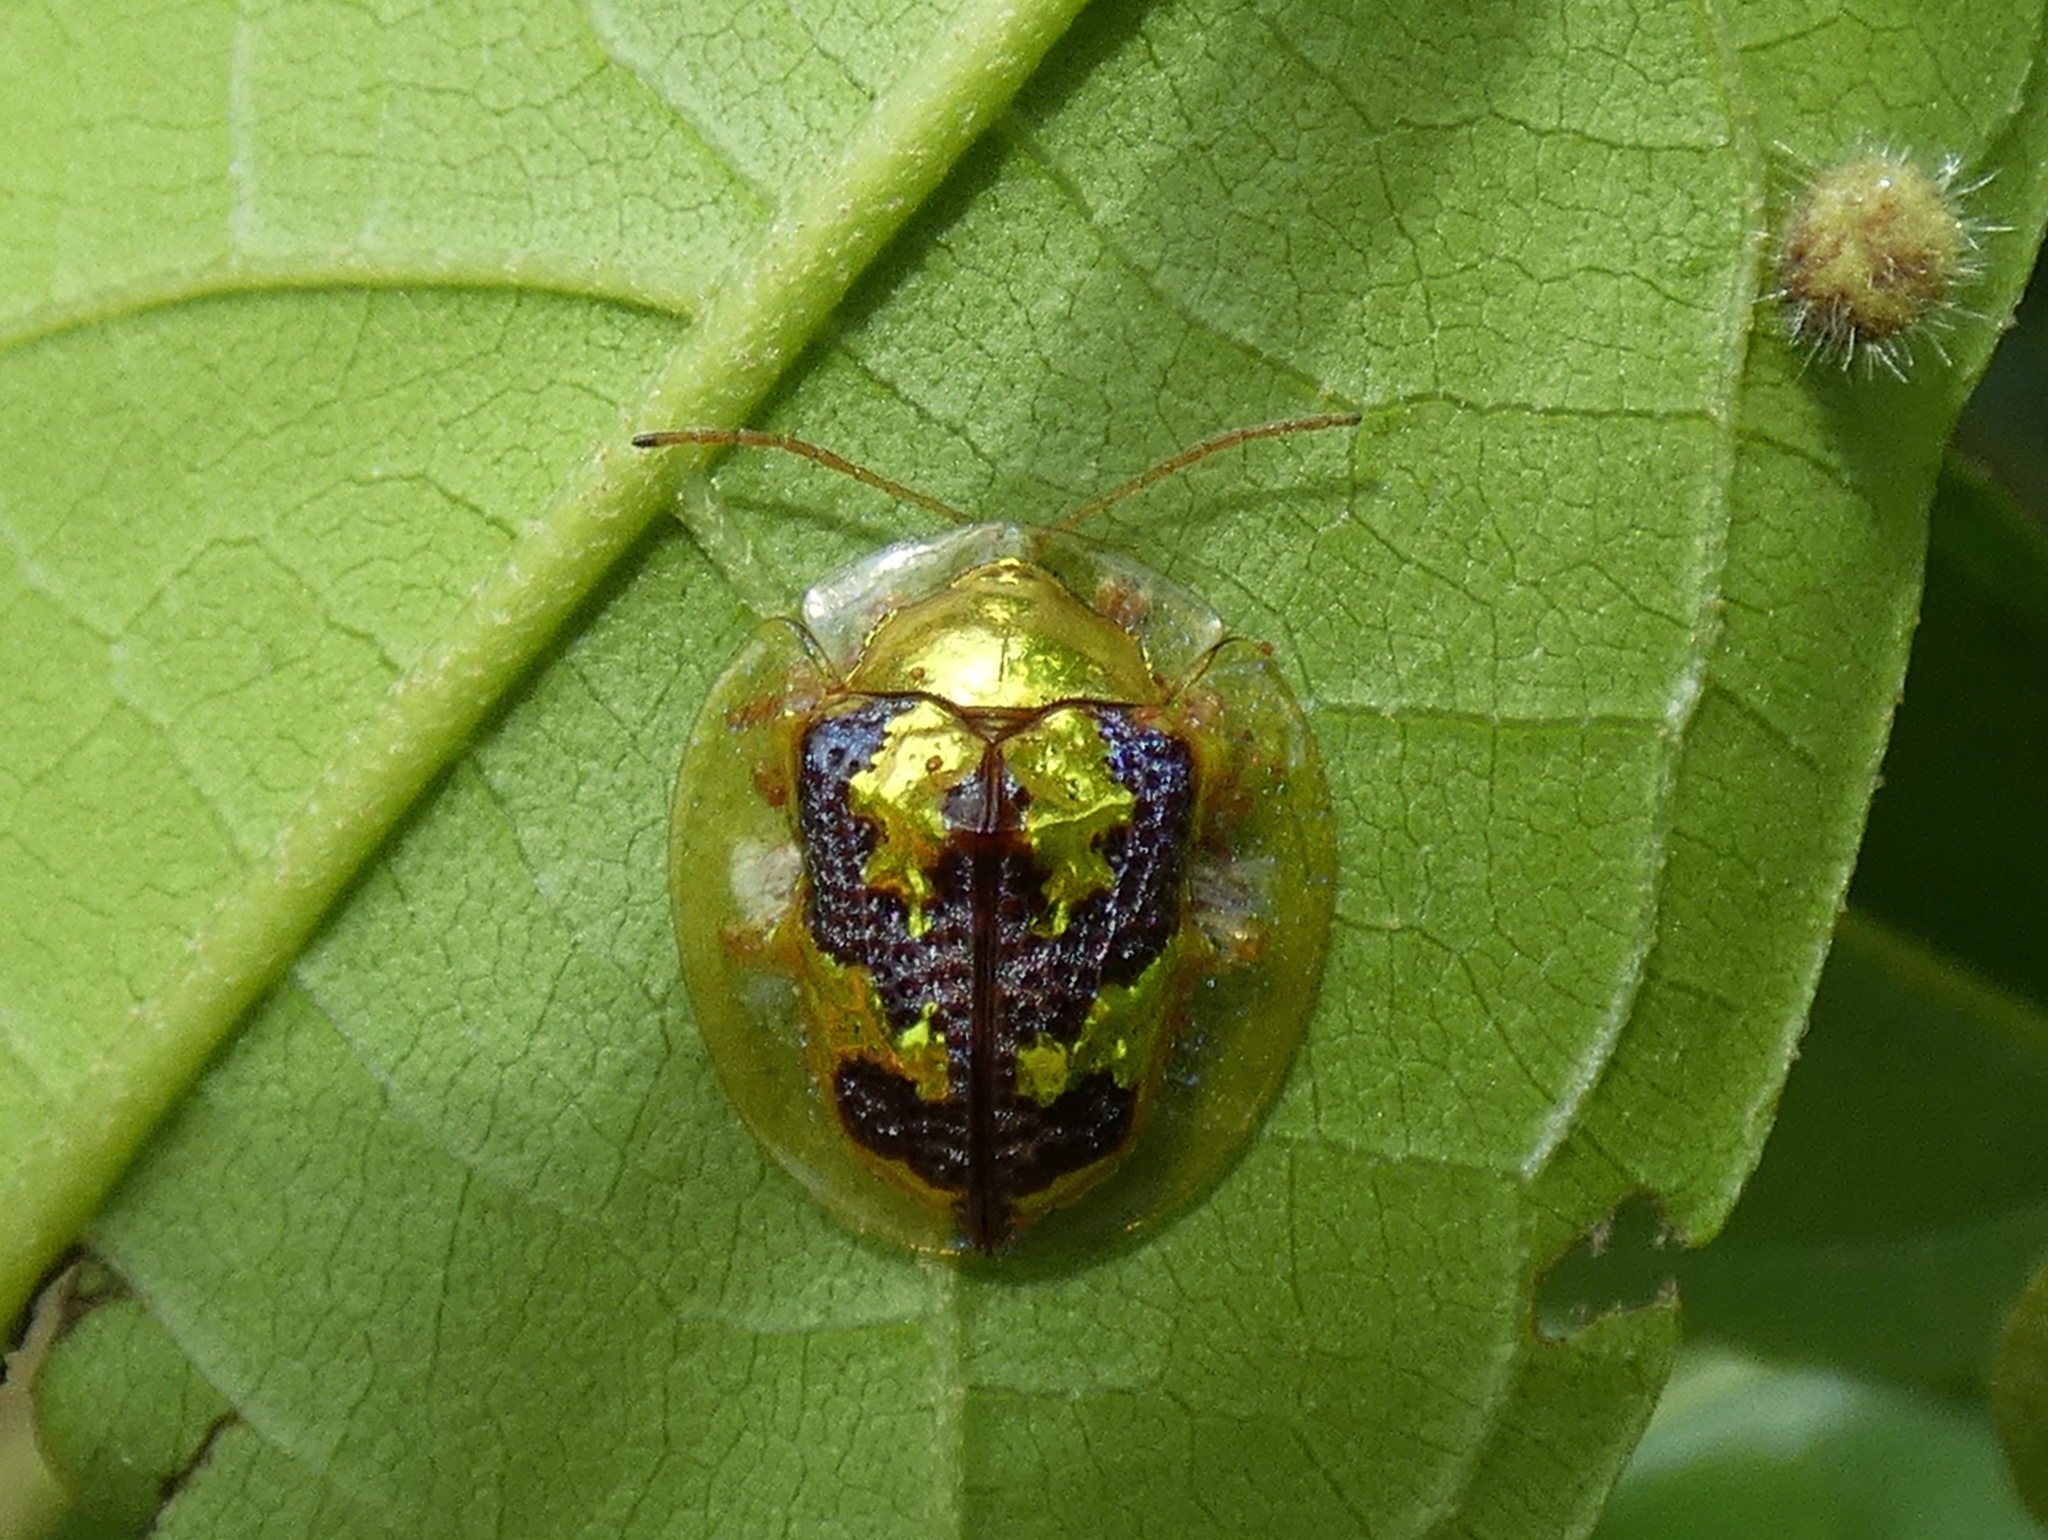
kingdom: Animalia
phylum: Arthropoda
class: Insecta
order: Coleoptera
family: Chrysomelidae
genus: Coptocycla
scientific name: Coptocycla leprosa
